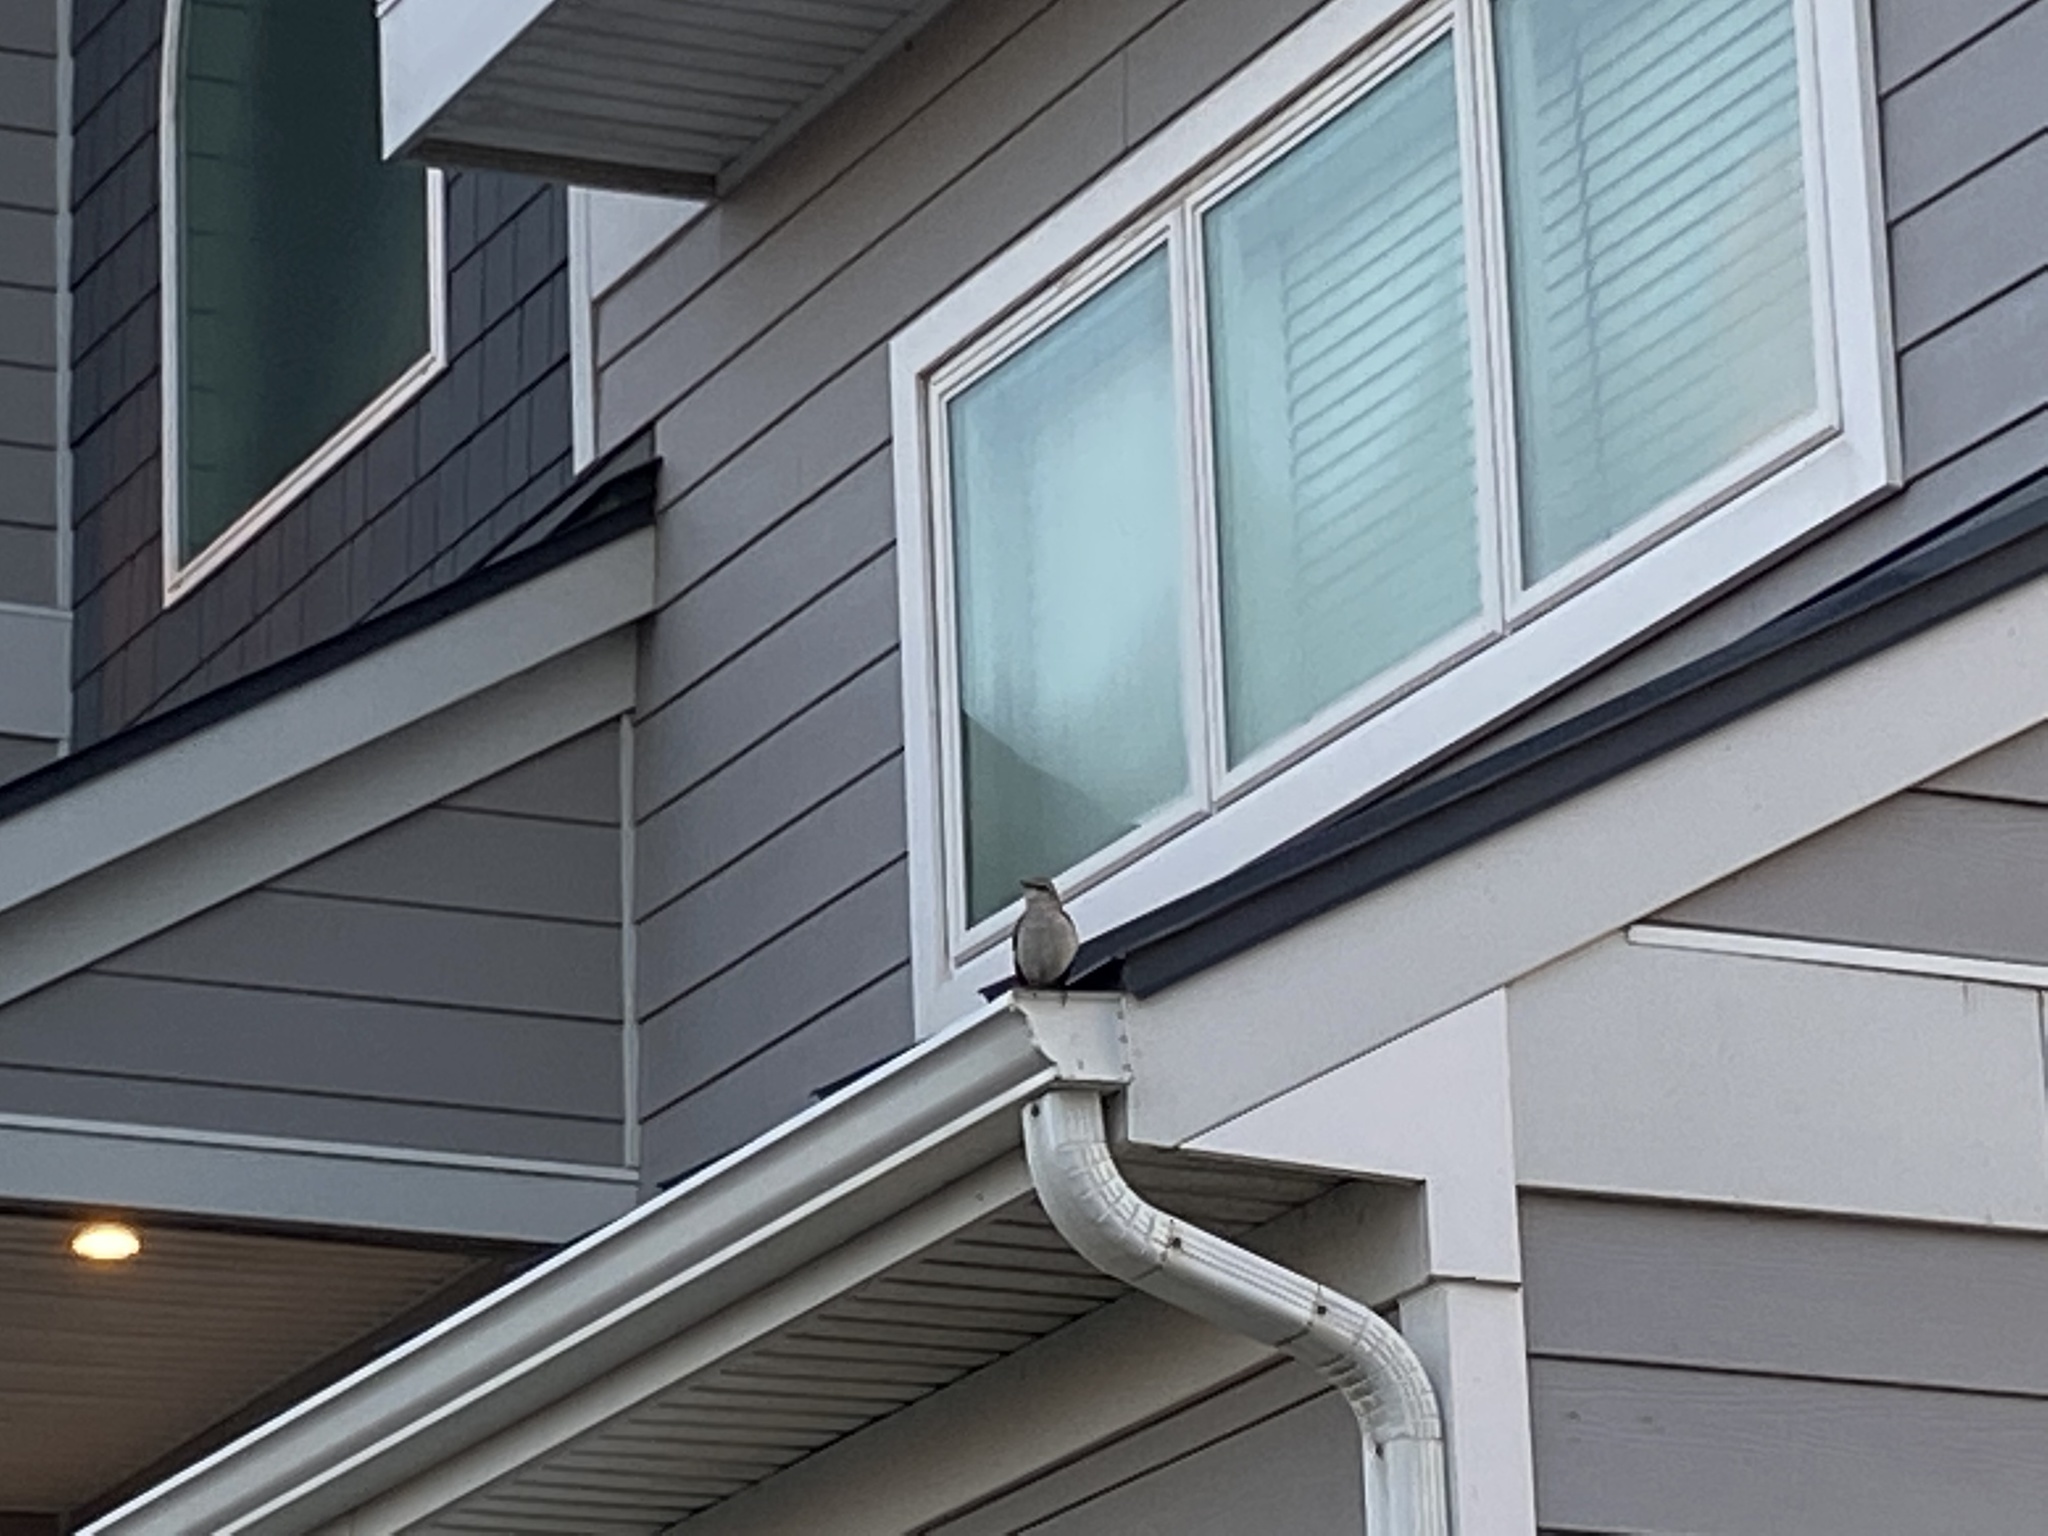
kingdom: Animalia
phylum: Chordata
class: Aves
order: Passeriformes
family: Mimidae
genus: Mimus
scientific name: Mimus polyglottos
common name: Northern mockingbird
